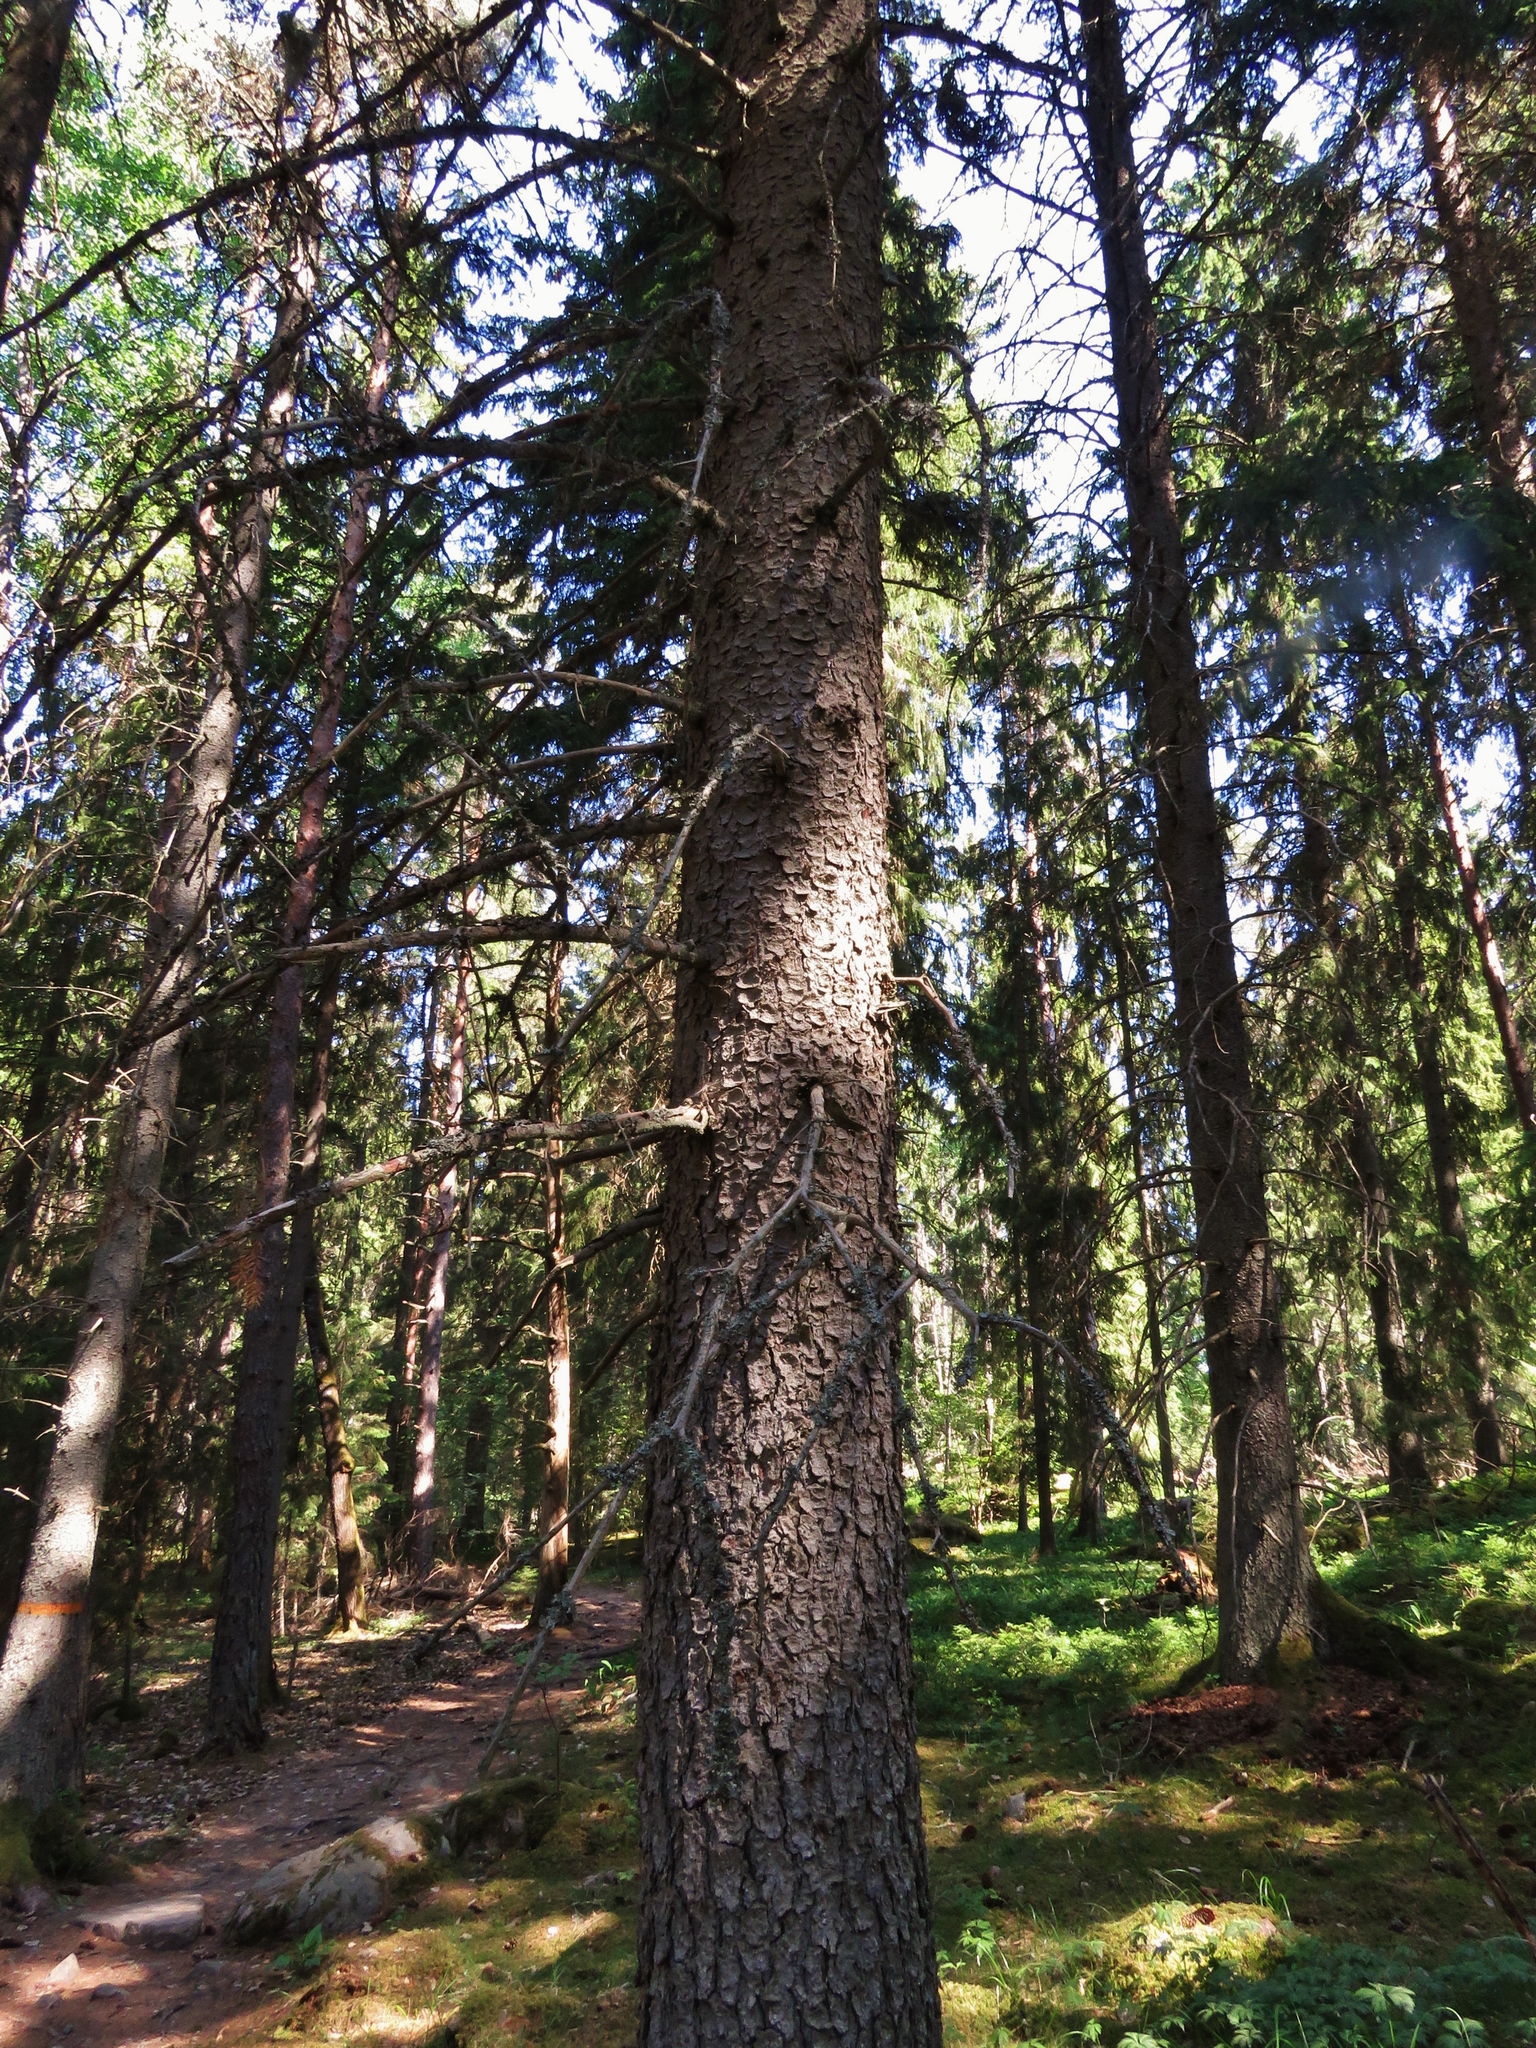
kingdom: Plantae
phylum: Tracheophyta
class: Pinopsida
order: Pinales
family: Pinaceae
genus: Picea
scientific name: Picea abies
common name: Norway spruce
